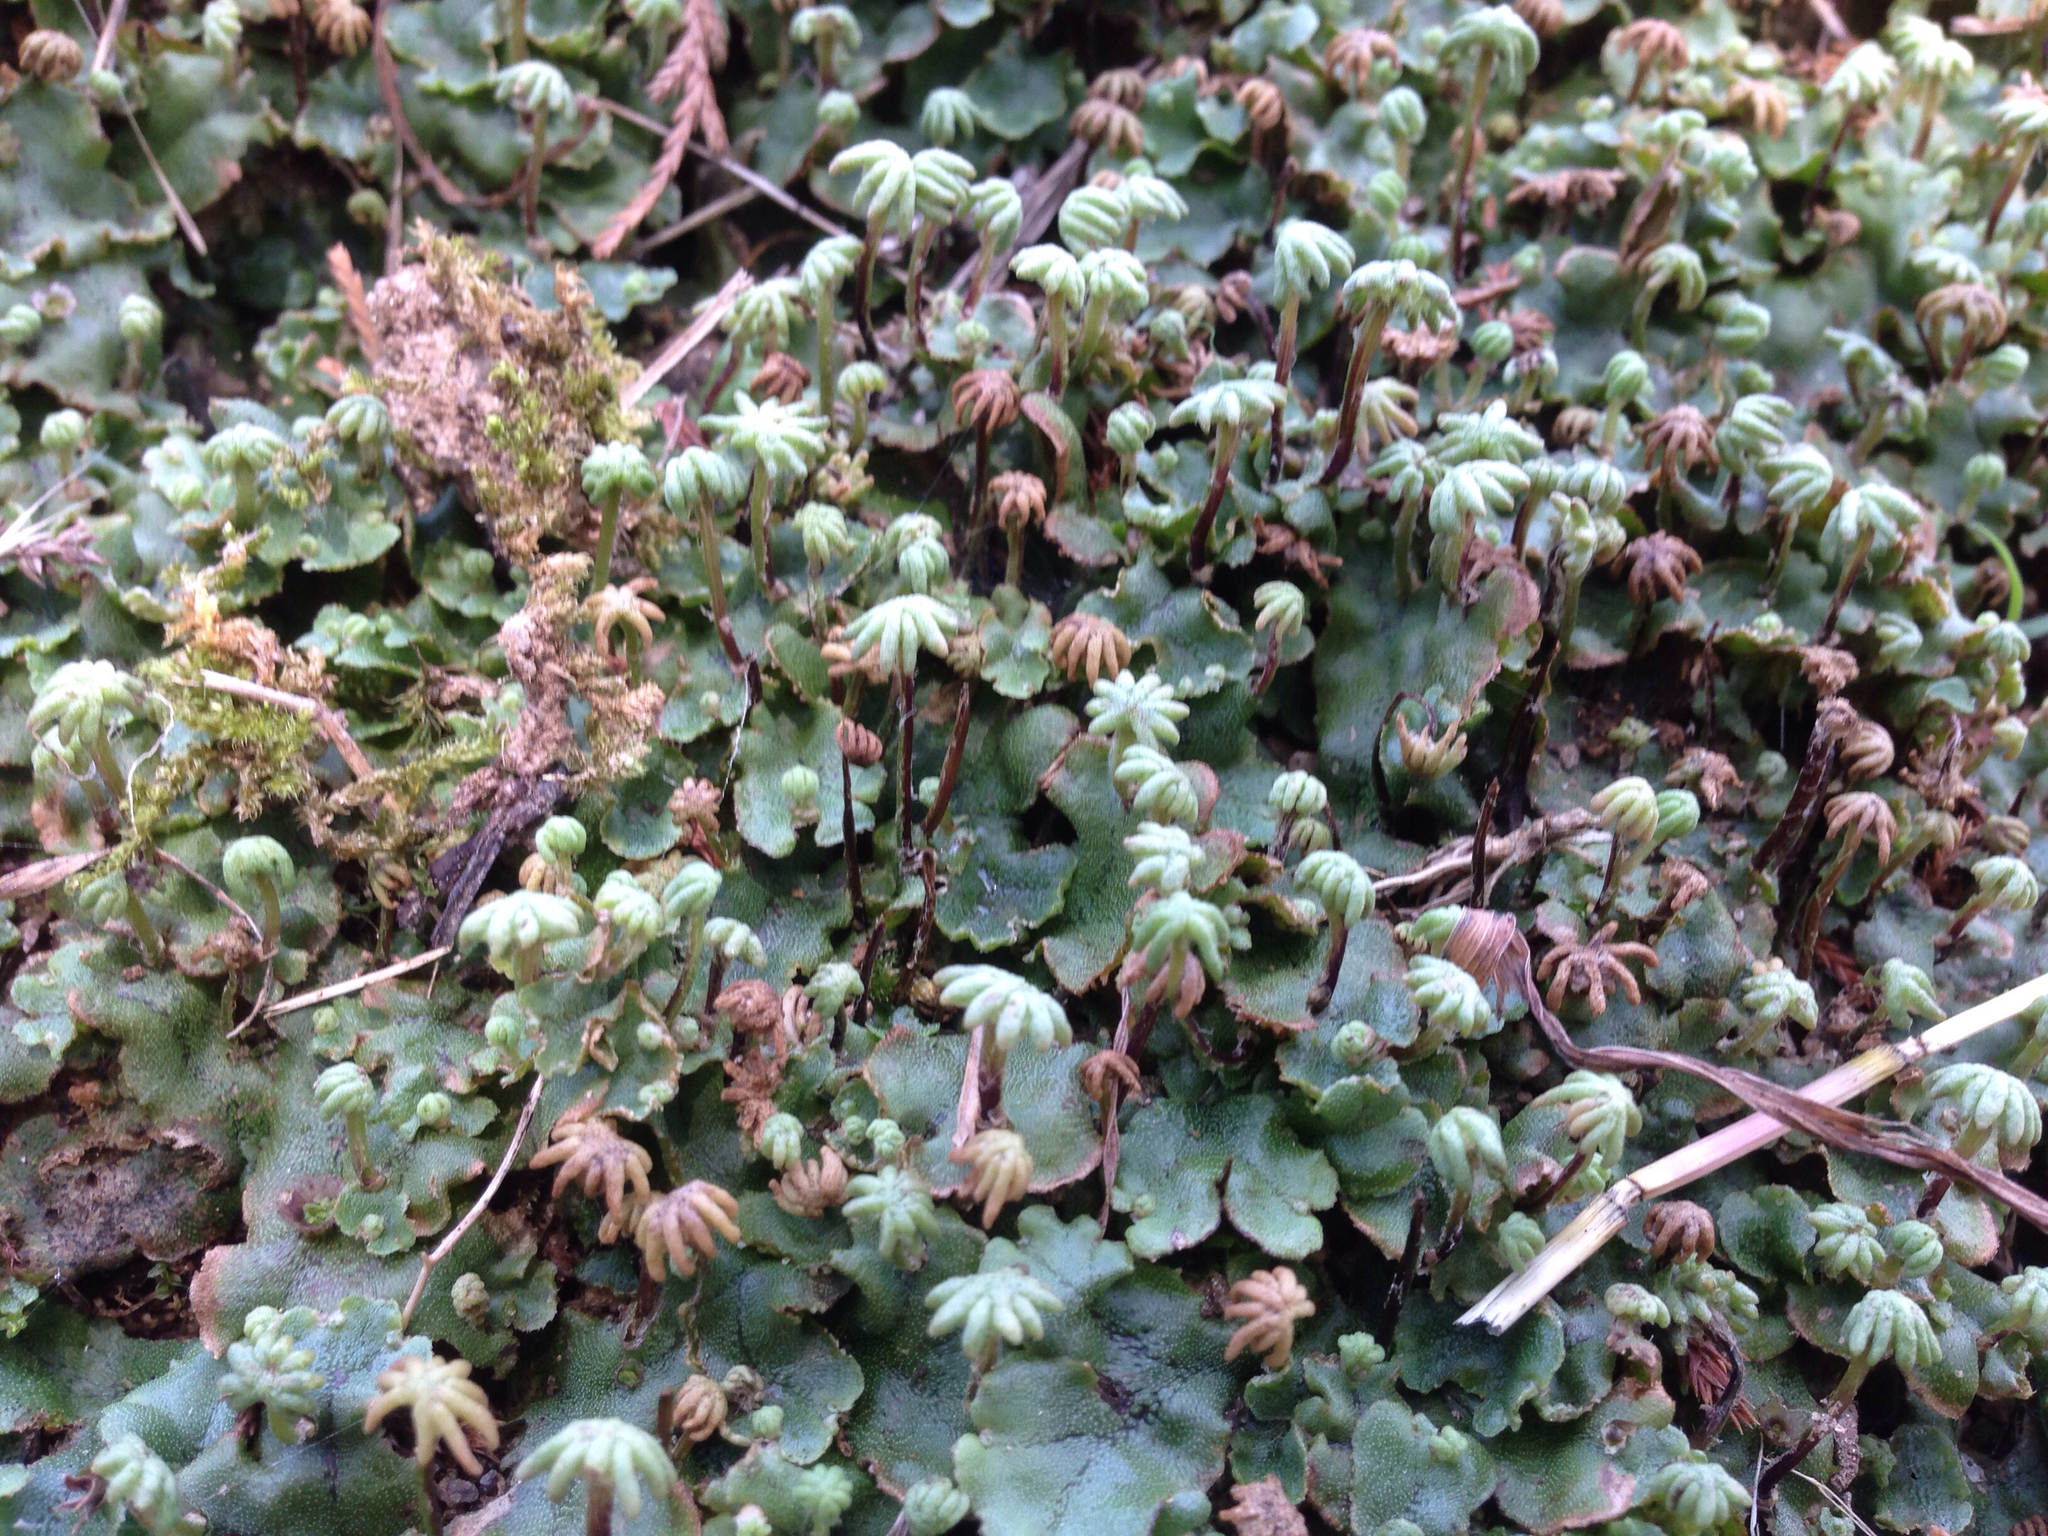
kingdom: Plantae
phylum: Marchantiophyta
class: Marchantiopsida
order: Marchantiales
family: Marchantiaceae
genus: Marchantia
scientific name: Marchantia polymorpha
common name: Common liverwort
